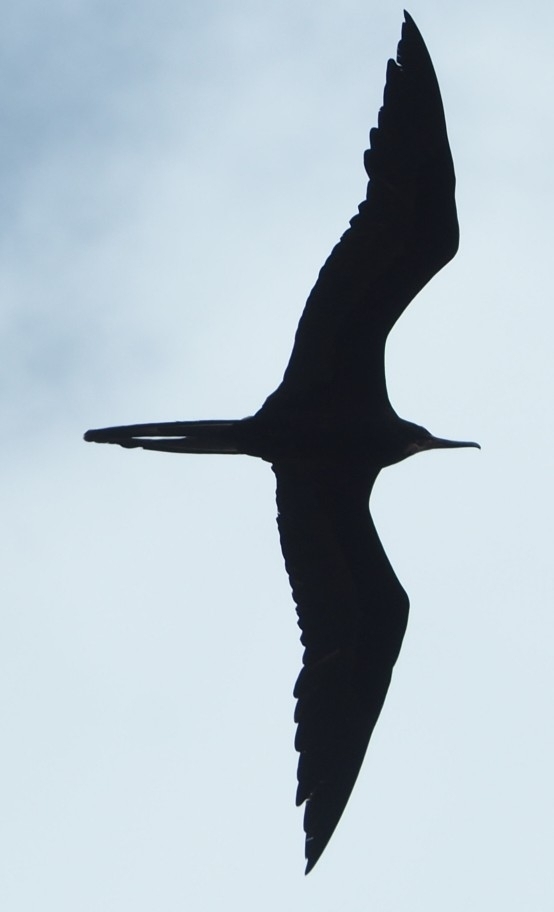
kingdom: Animalia
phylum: Chordata
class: Aves
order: Suliformes
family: Fregatidae
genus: Fregata
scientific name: Fregata magnificens
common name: Magnificent frigatebird
